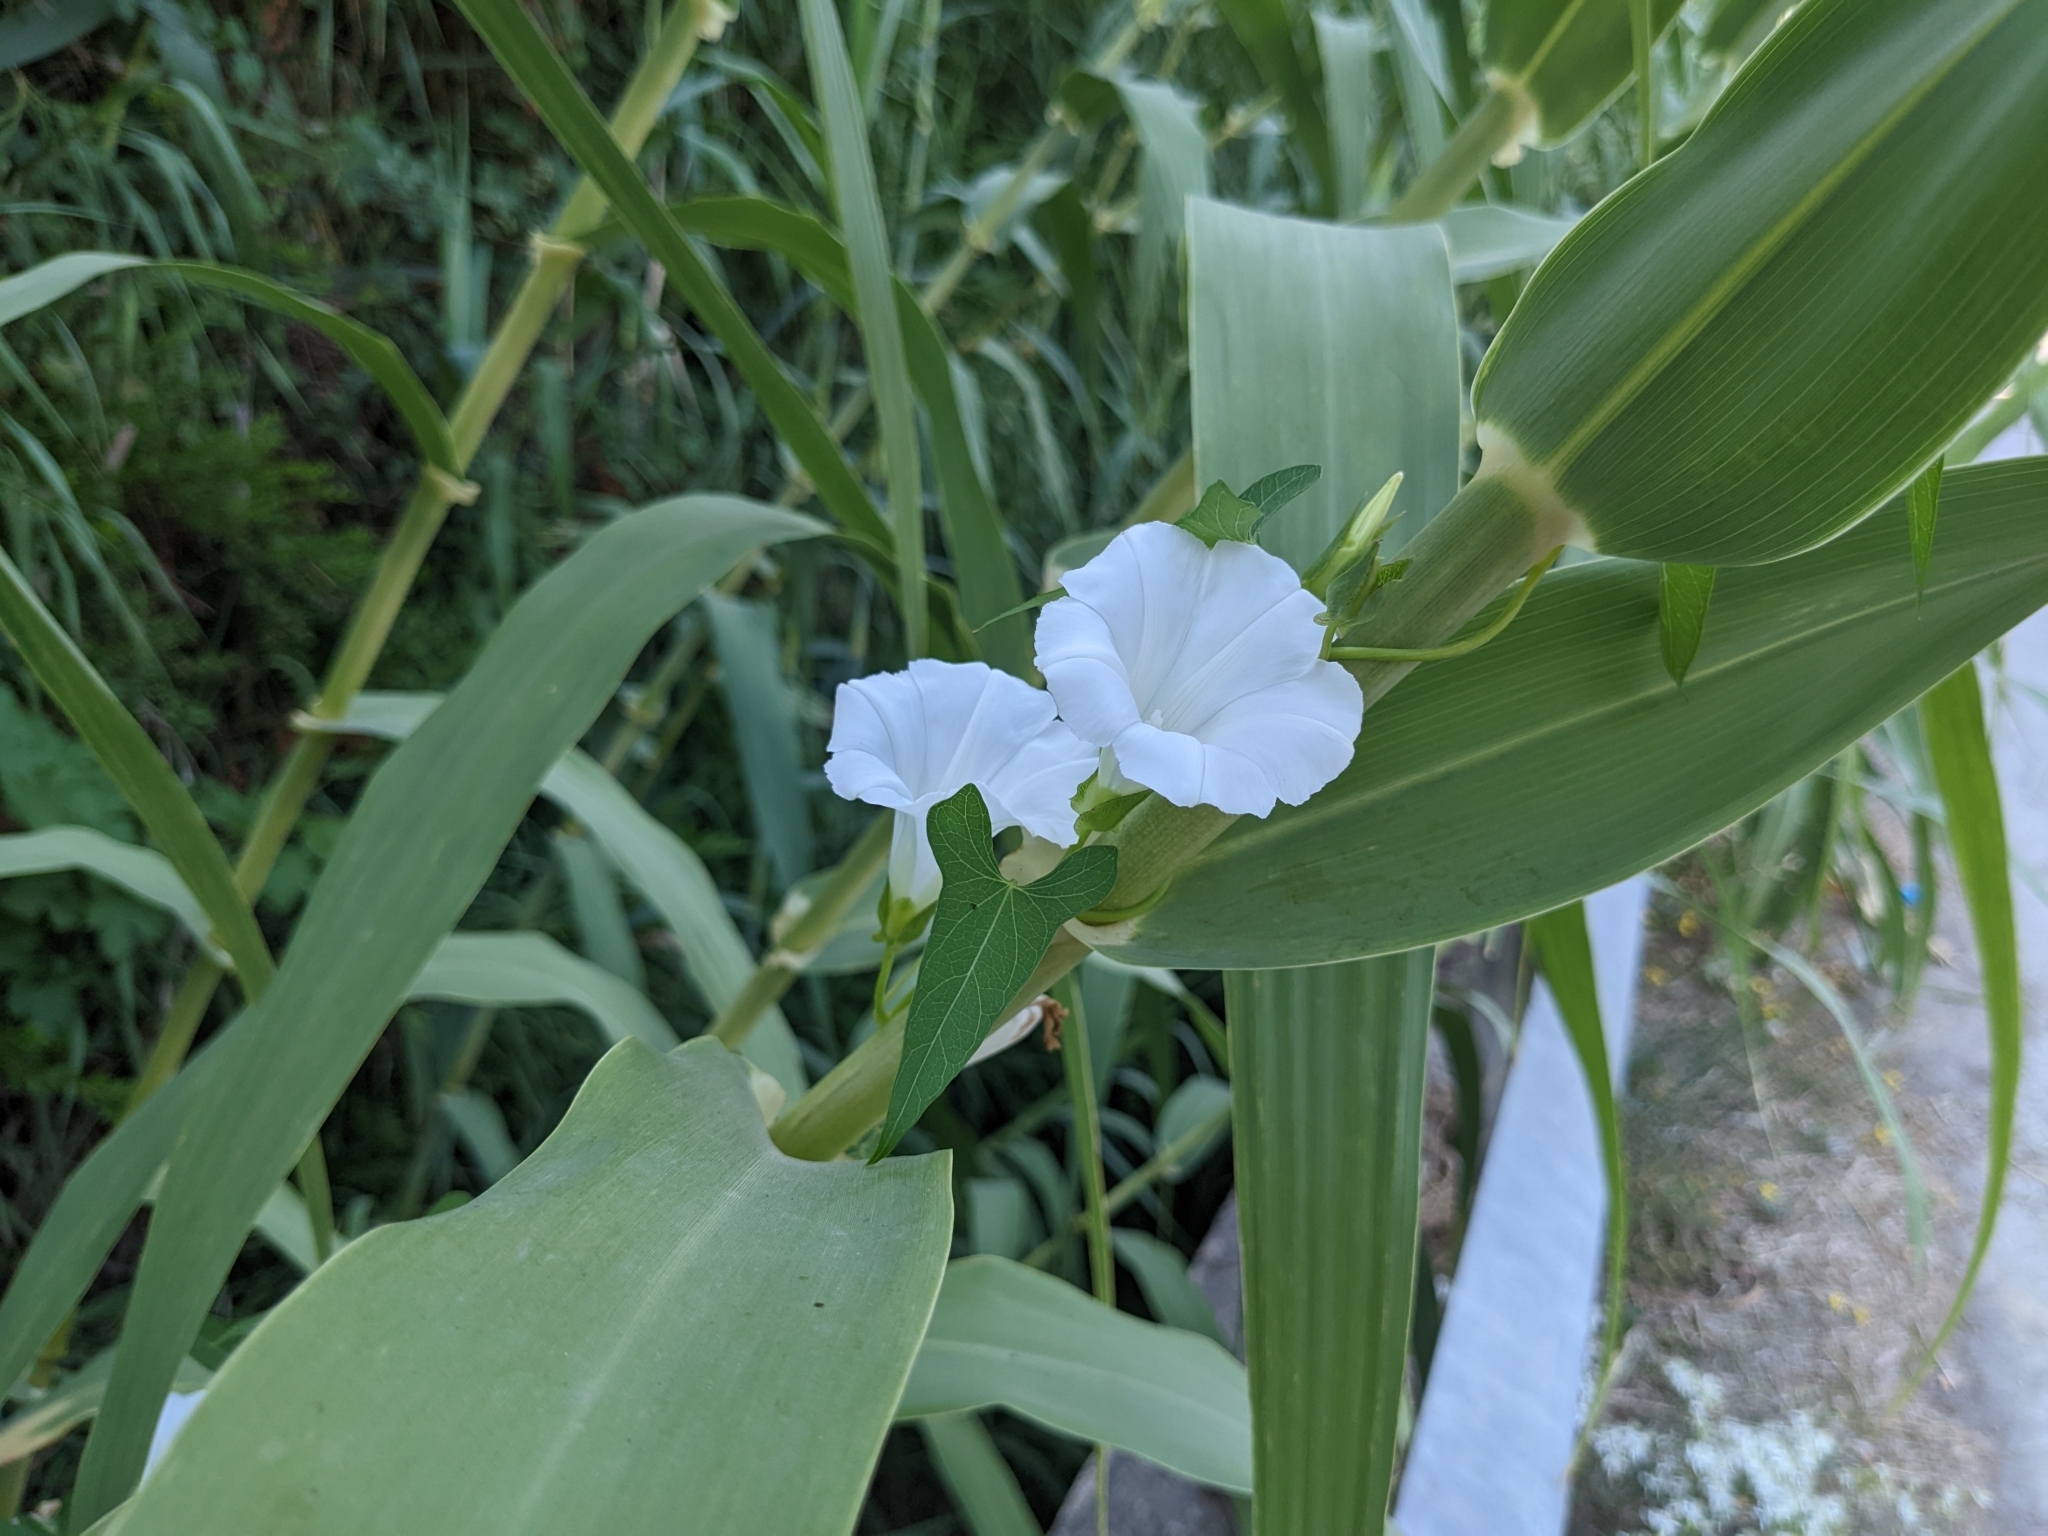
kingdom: Plantae
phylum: Tracheophyta
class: Magnoliopsida
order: Solanales
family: Convolvulaceae
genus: Calystegia
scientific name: Calystegia sepium
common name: Hedge bindweed
